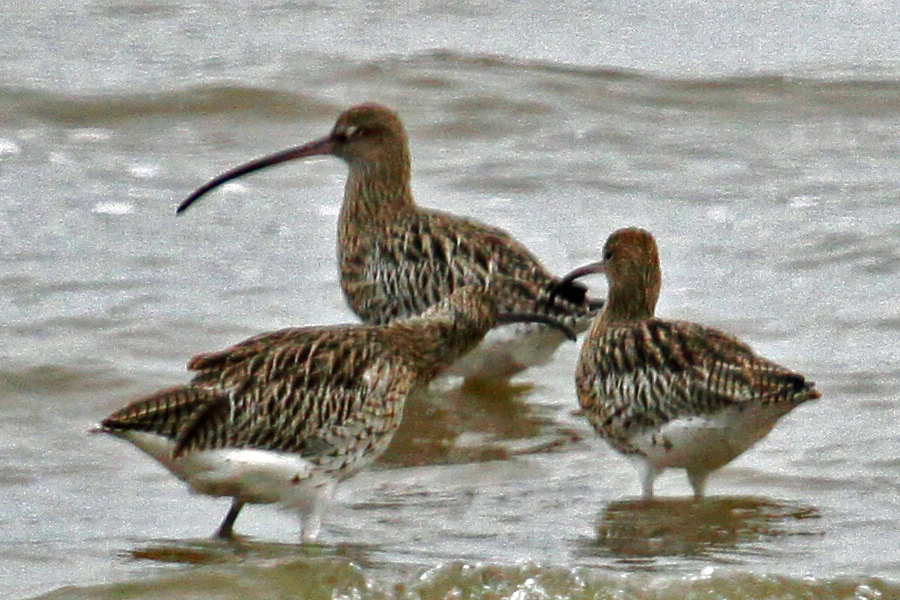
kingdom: Animalia
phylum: Chordata
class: Aves
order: Charadriiformes
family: Scolopacidae
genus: Numenius
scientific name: Numenius arquata
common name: Eurasian curlew
